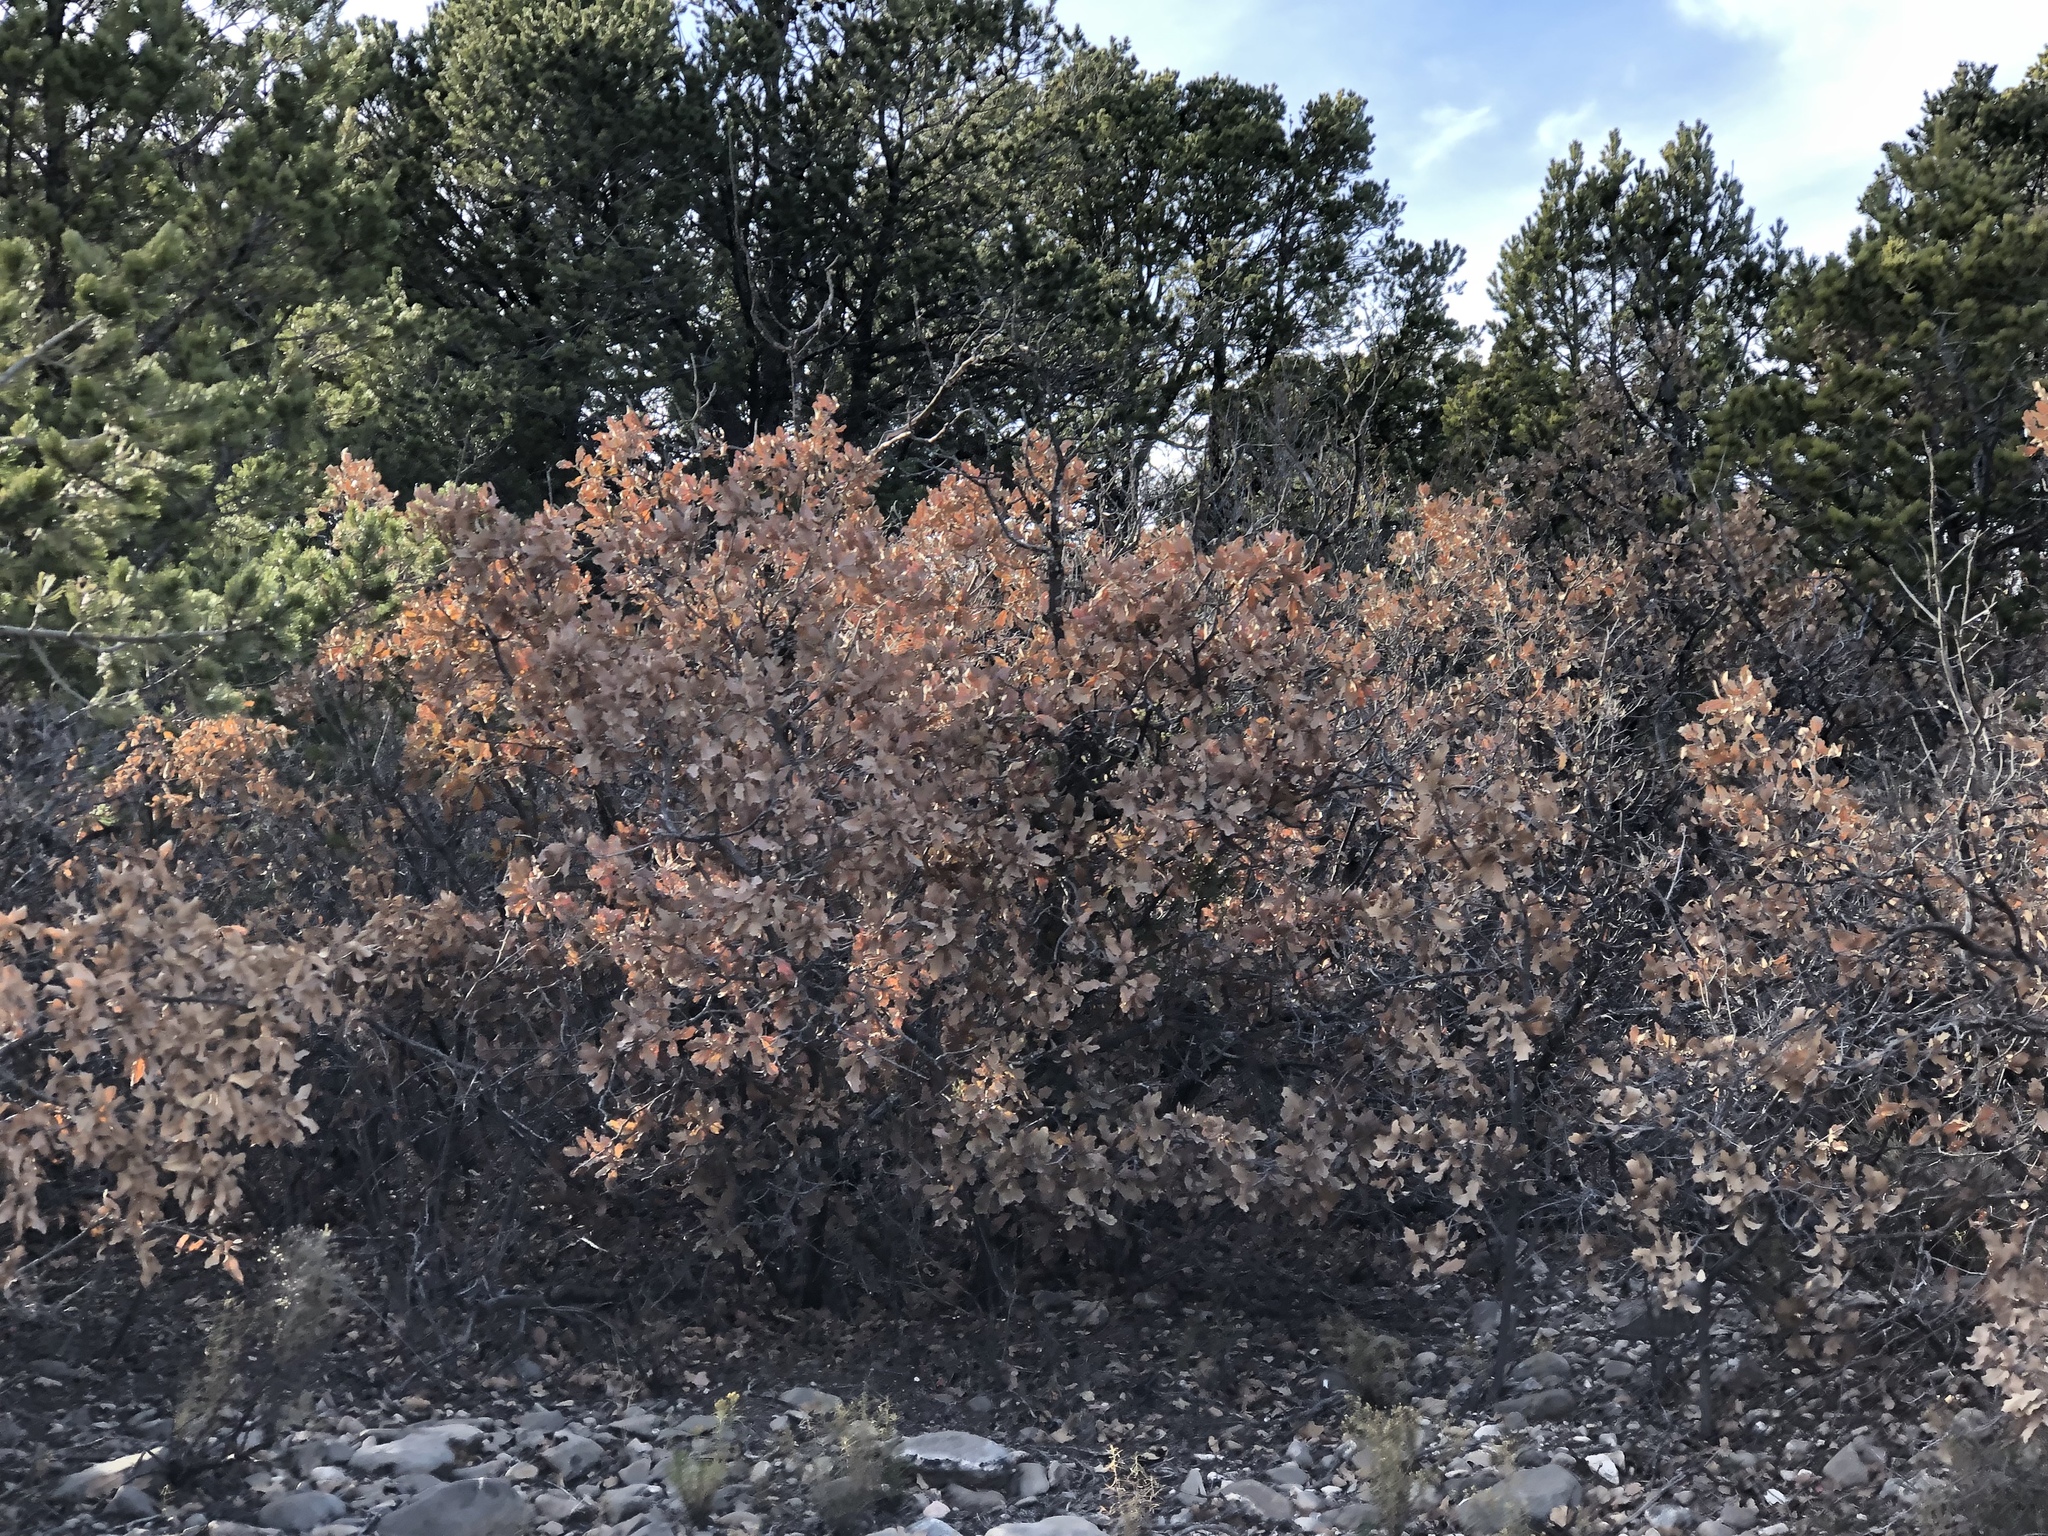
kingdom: Plantae
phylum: Tracheophyta
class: Magnoliopsida
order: Fagales
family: Fagaceae
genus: Quercus
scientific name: Quercus undulata
